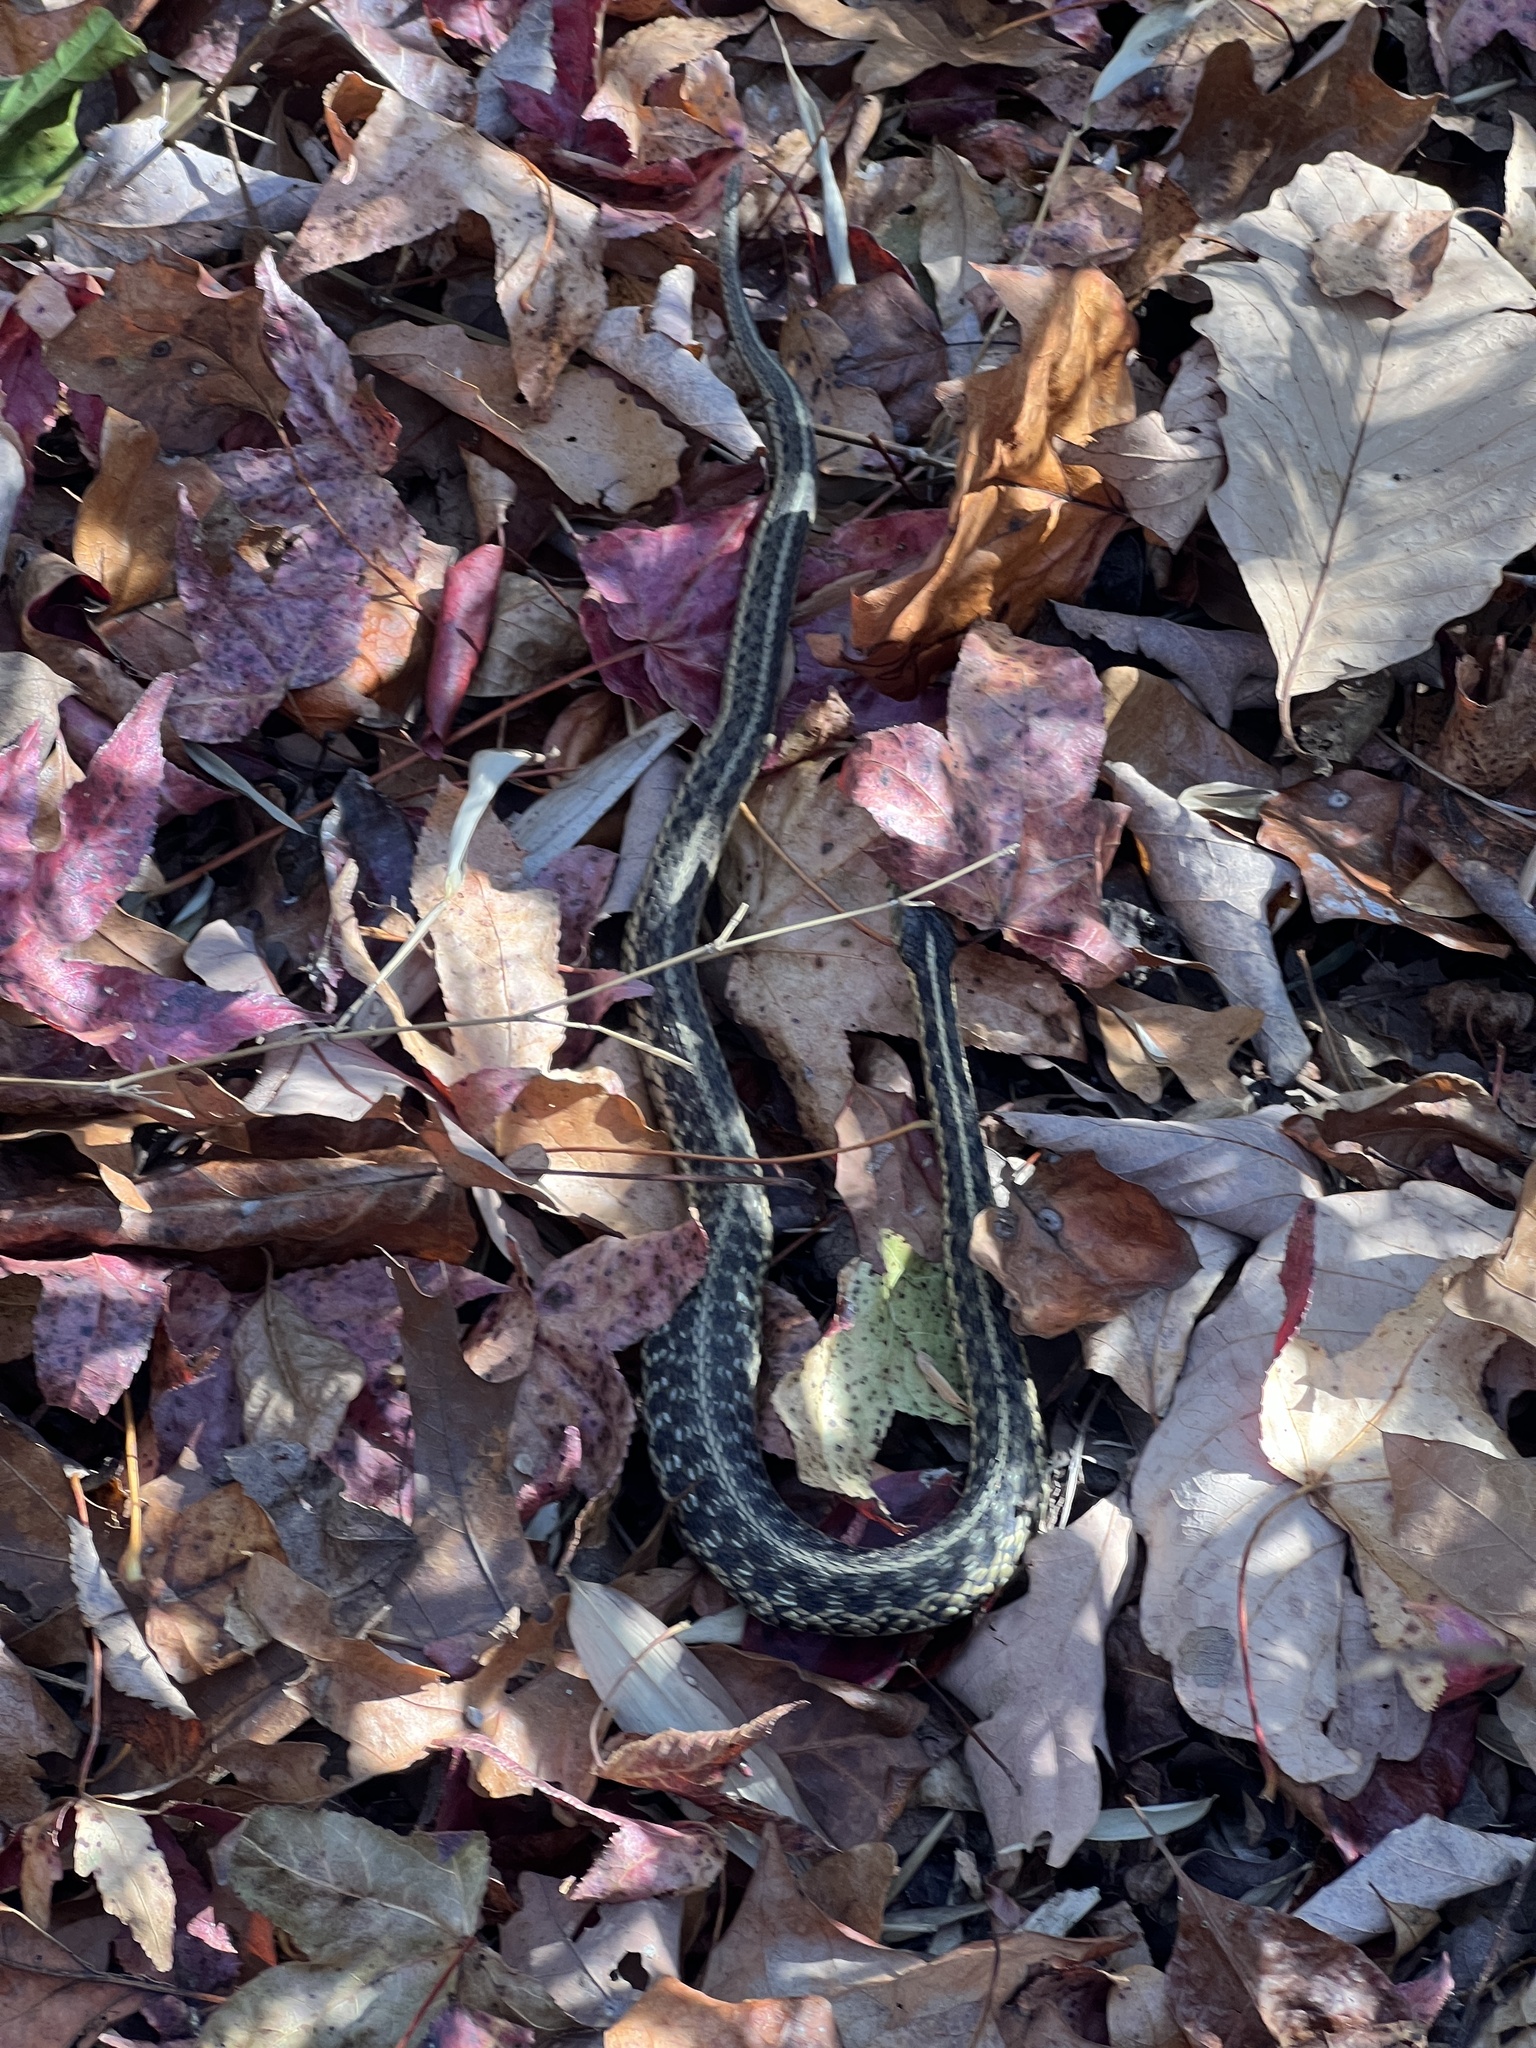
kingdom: Animalia
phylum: Chordata
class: Squamata
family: Colubridae
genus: Thamnophis
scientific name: Thamnophis sirtalis
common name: Common garter snake
